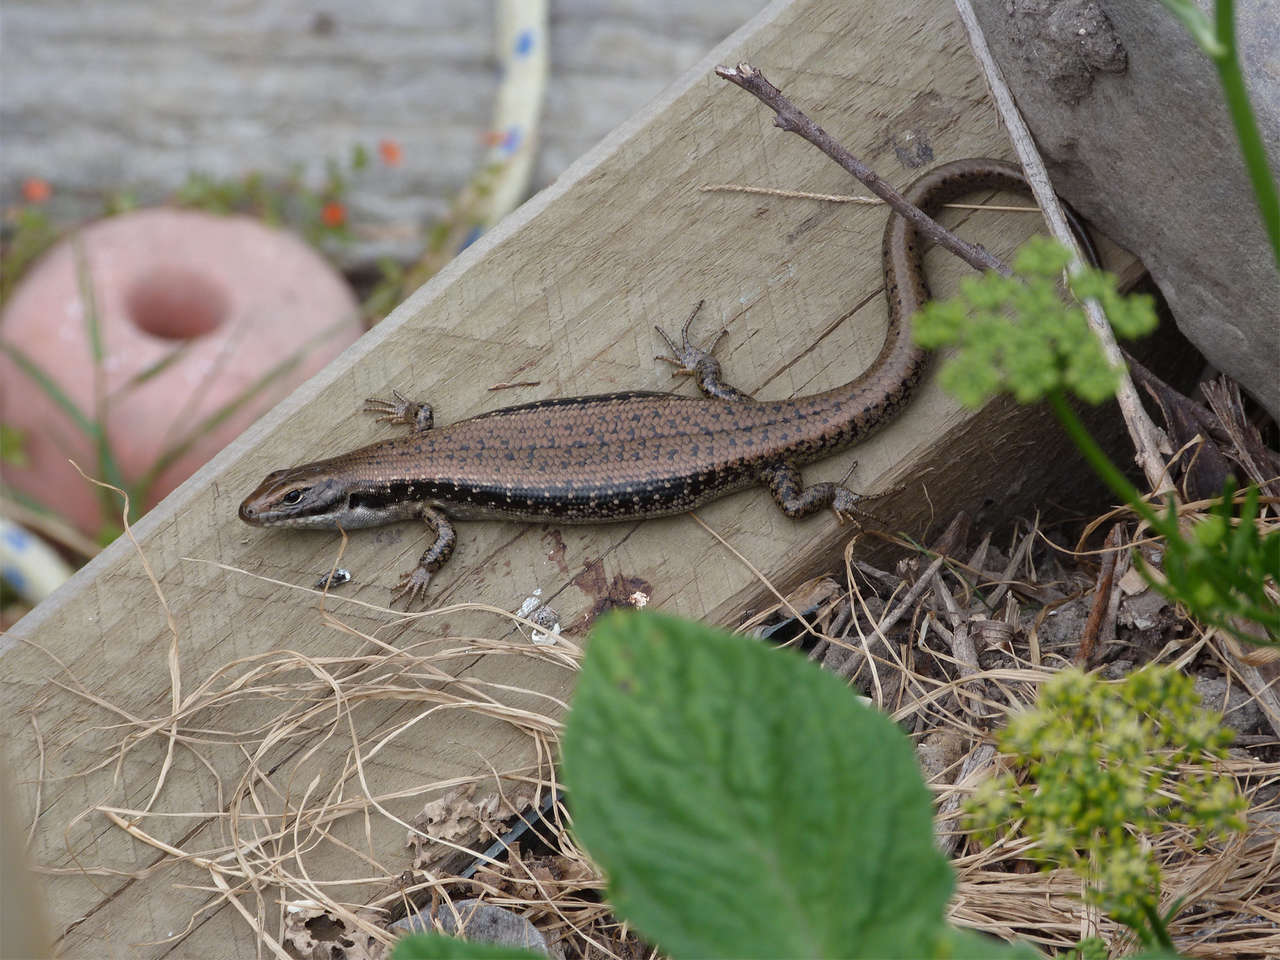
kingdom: Animalia
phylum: Chordata
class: Squamata
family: Scincidae
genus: Eulamprus
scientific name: Eulamprus tympanum
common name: Cool-temperate water-skink
